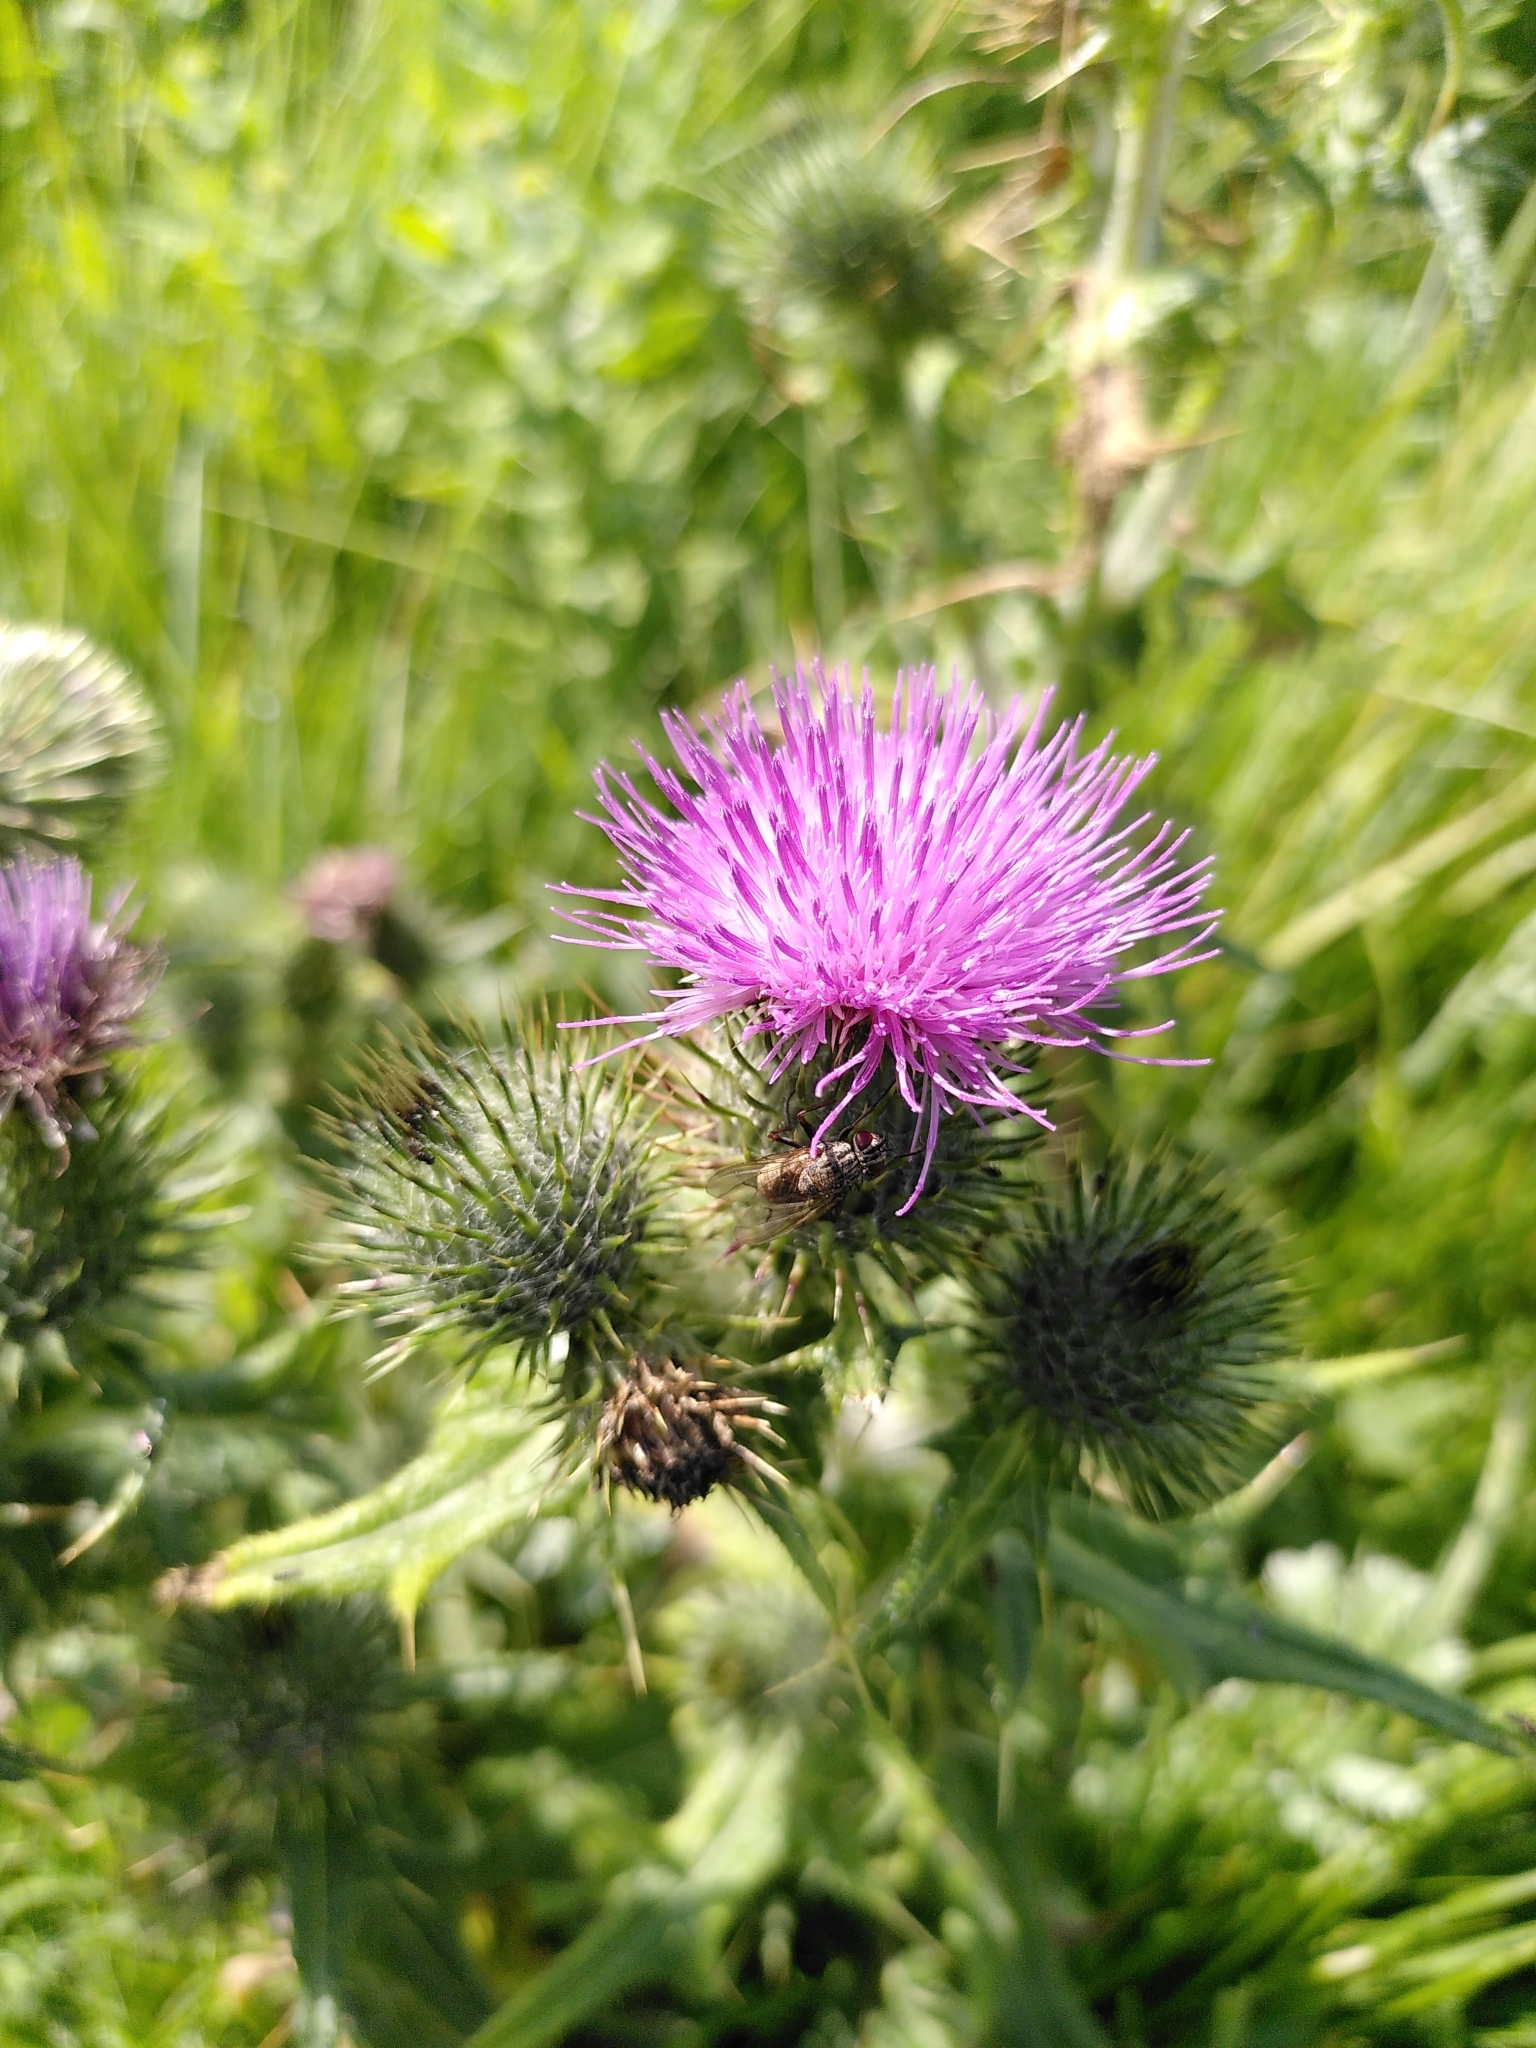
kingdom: Plantae
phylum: Tracheophyta
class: Magnoliopsida
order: Asterales
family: Asteraceae
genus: Cirsium
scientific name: Cirsium vulgare
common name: Bull thistle
